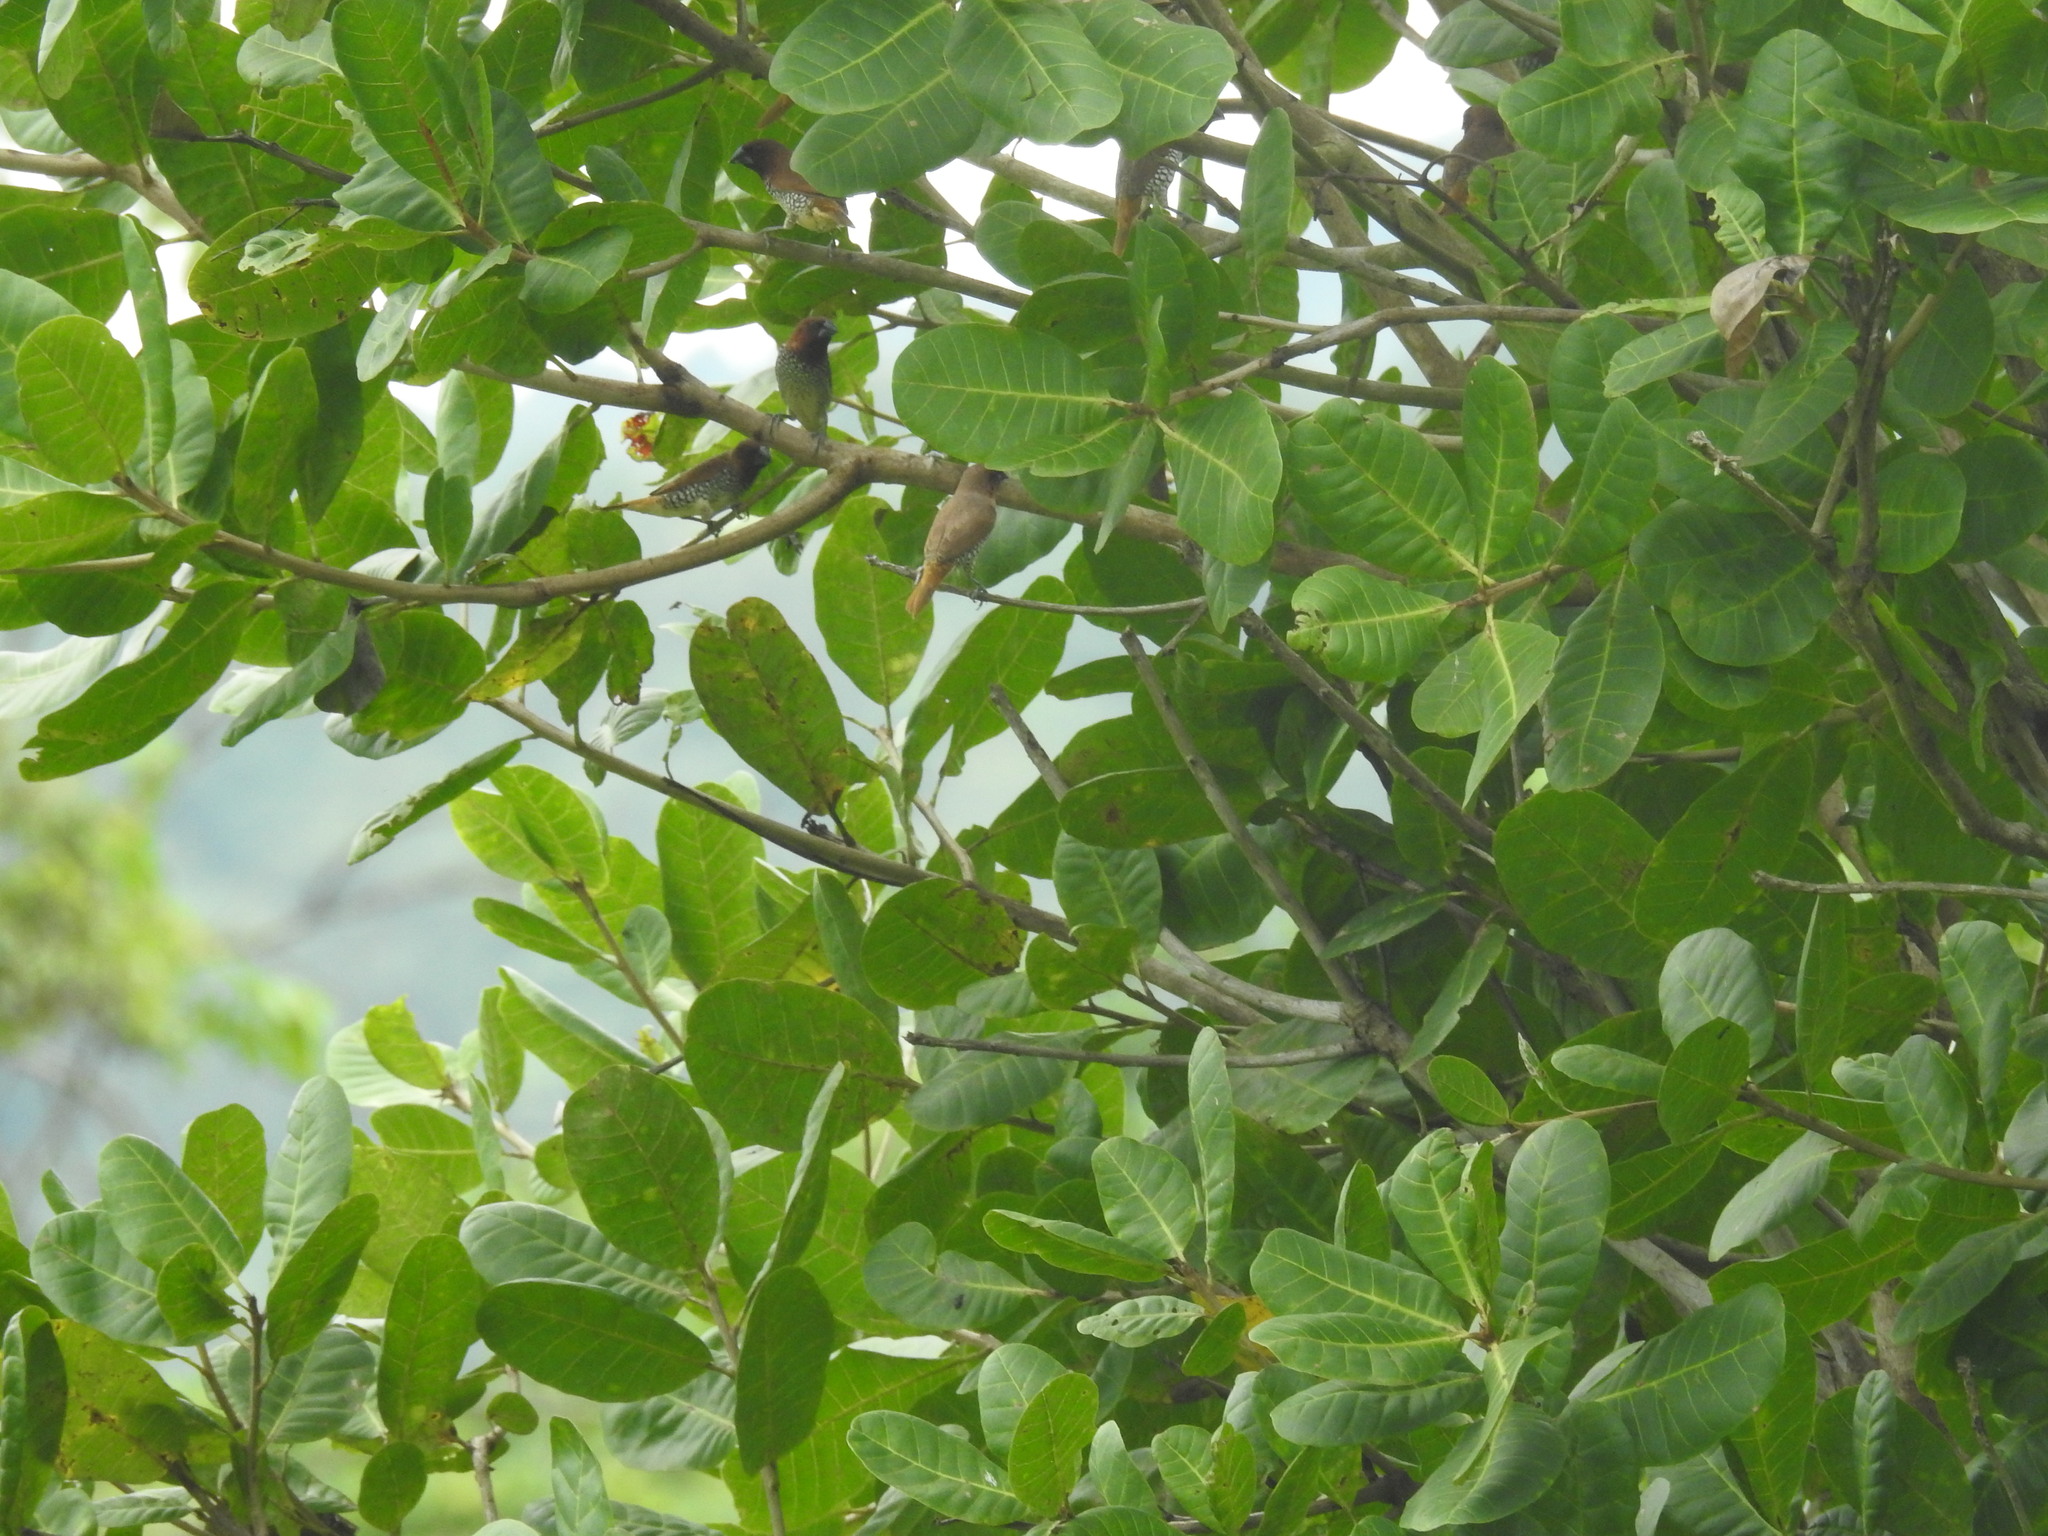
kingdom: Animalia
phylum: Chordata
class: Aves
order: Passeriformes
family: Estrildidae
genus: Lonchura
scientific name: Lonchura punctulata
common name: Scaly-breasted munia
